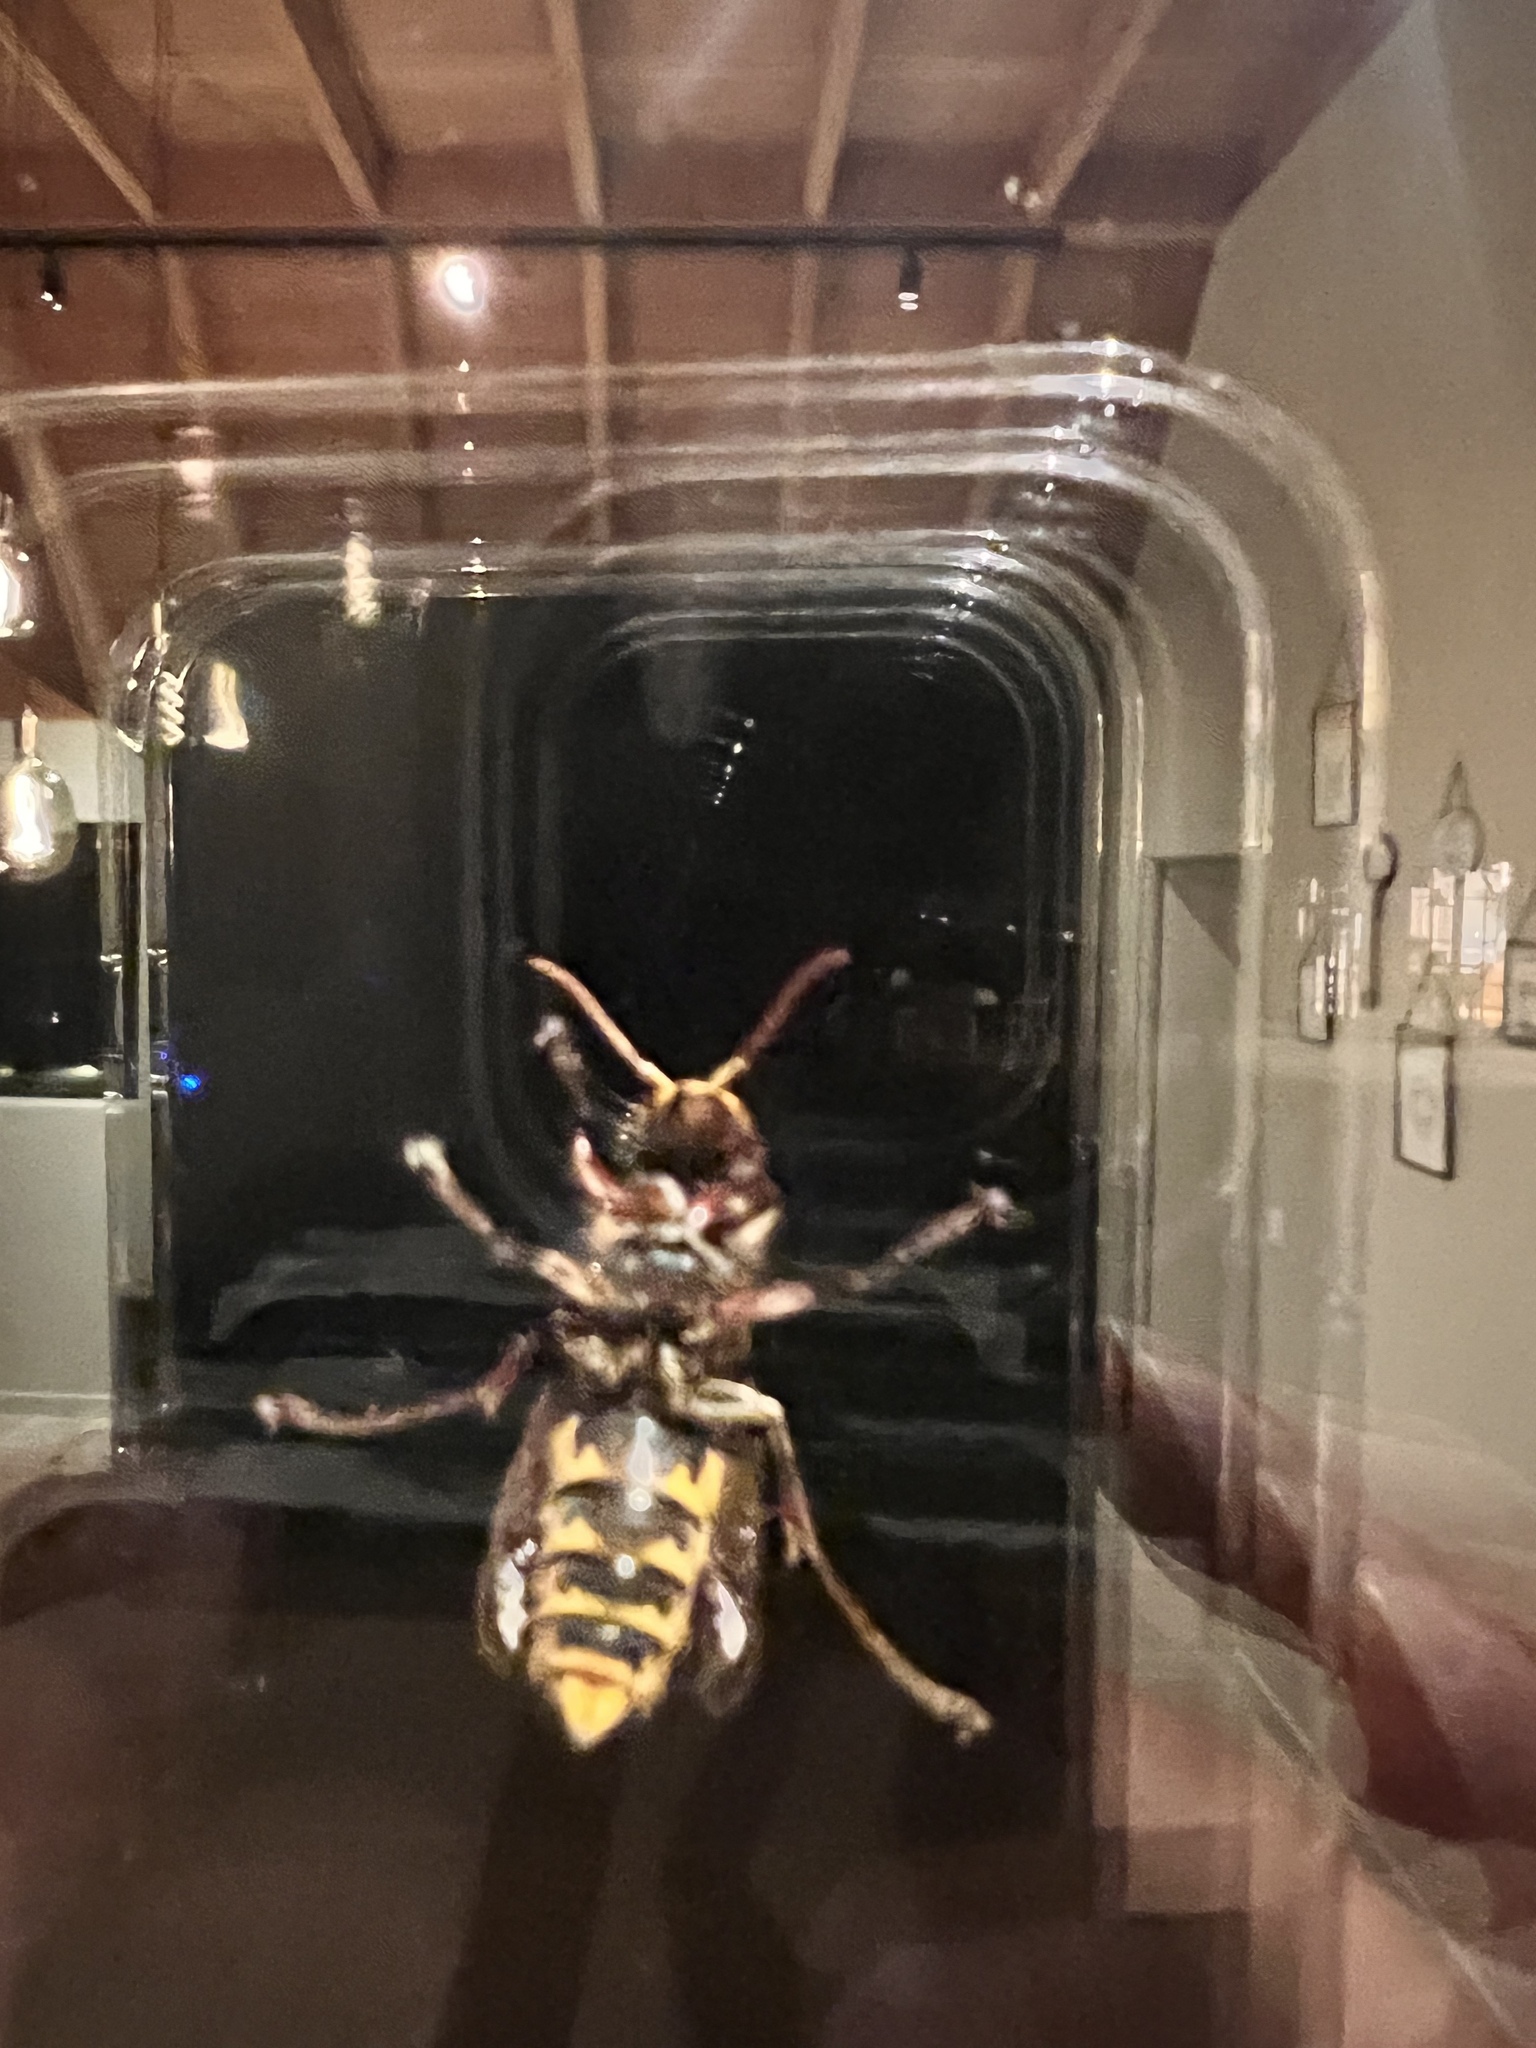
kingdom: Animalia
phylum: Arthropoda
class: Insecta
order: Hymenoptera
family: Vespidae
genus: Vespa
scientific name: Vespa crabro
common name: Hornet
